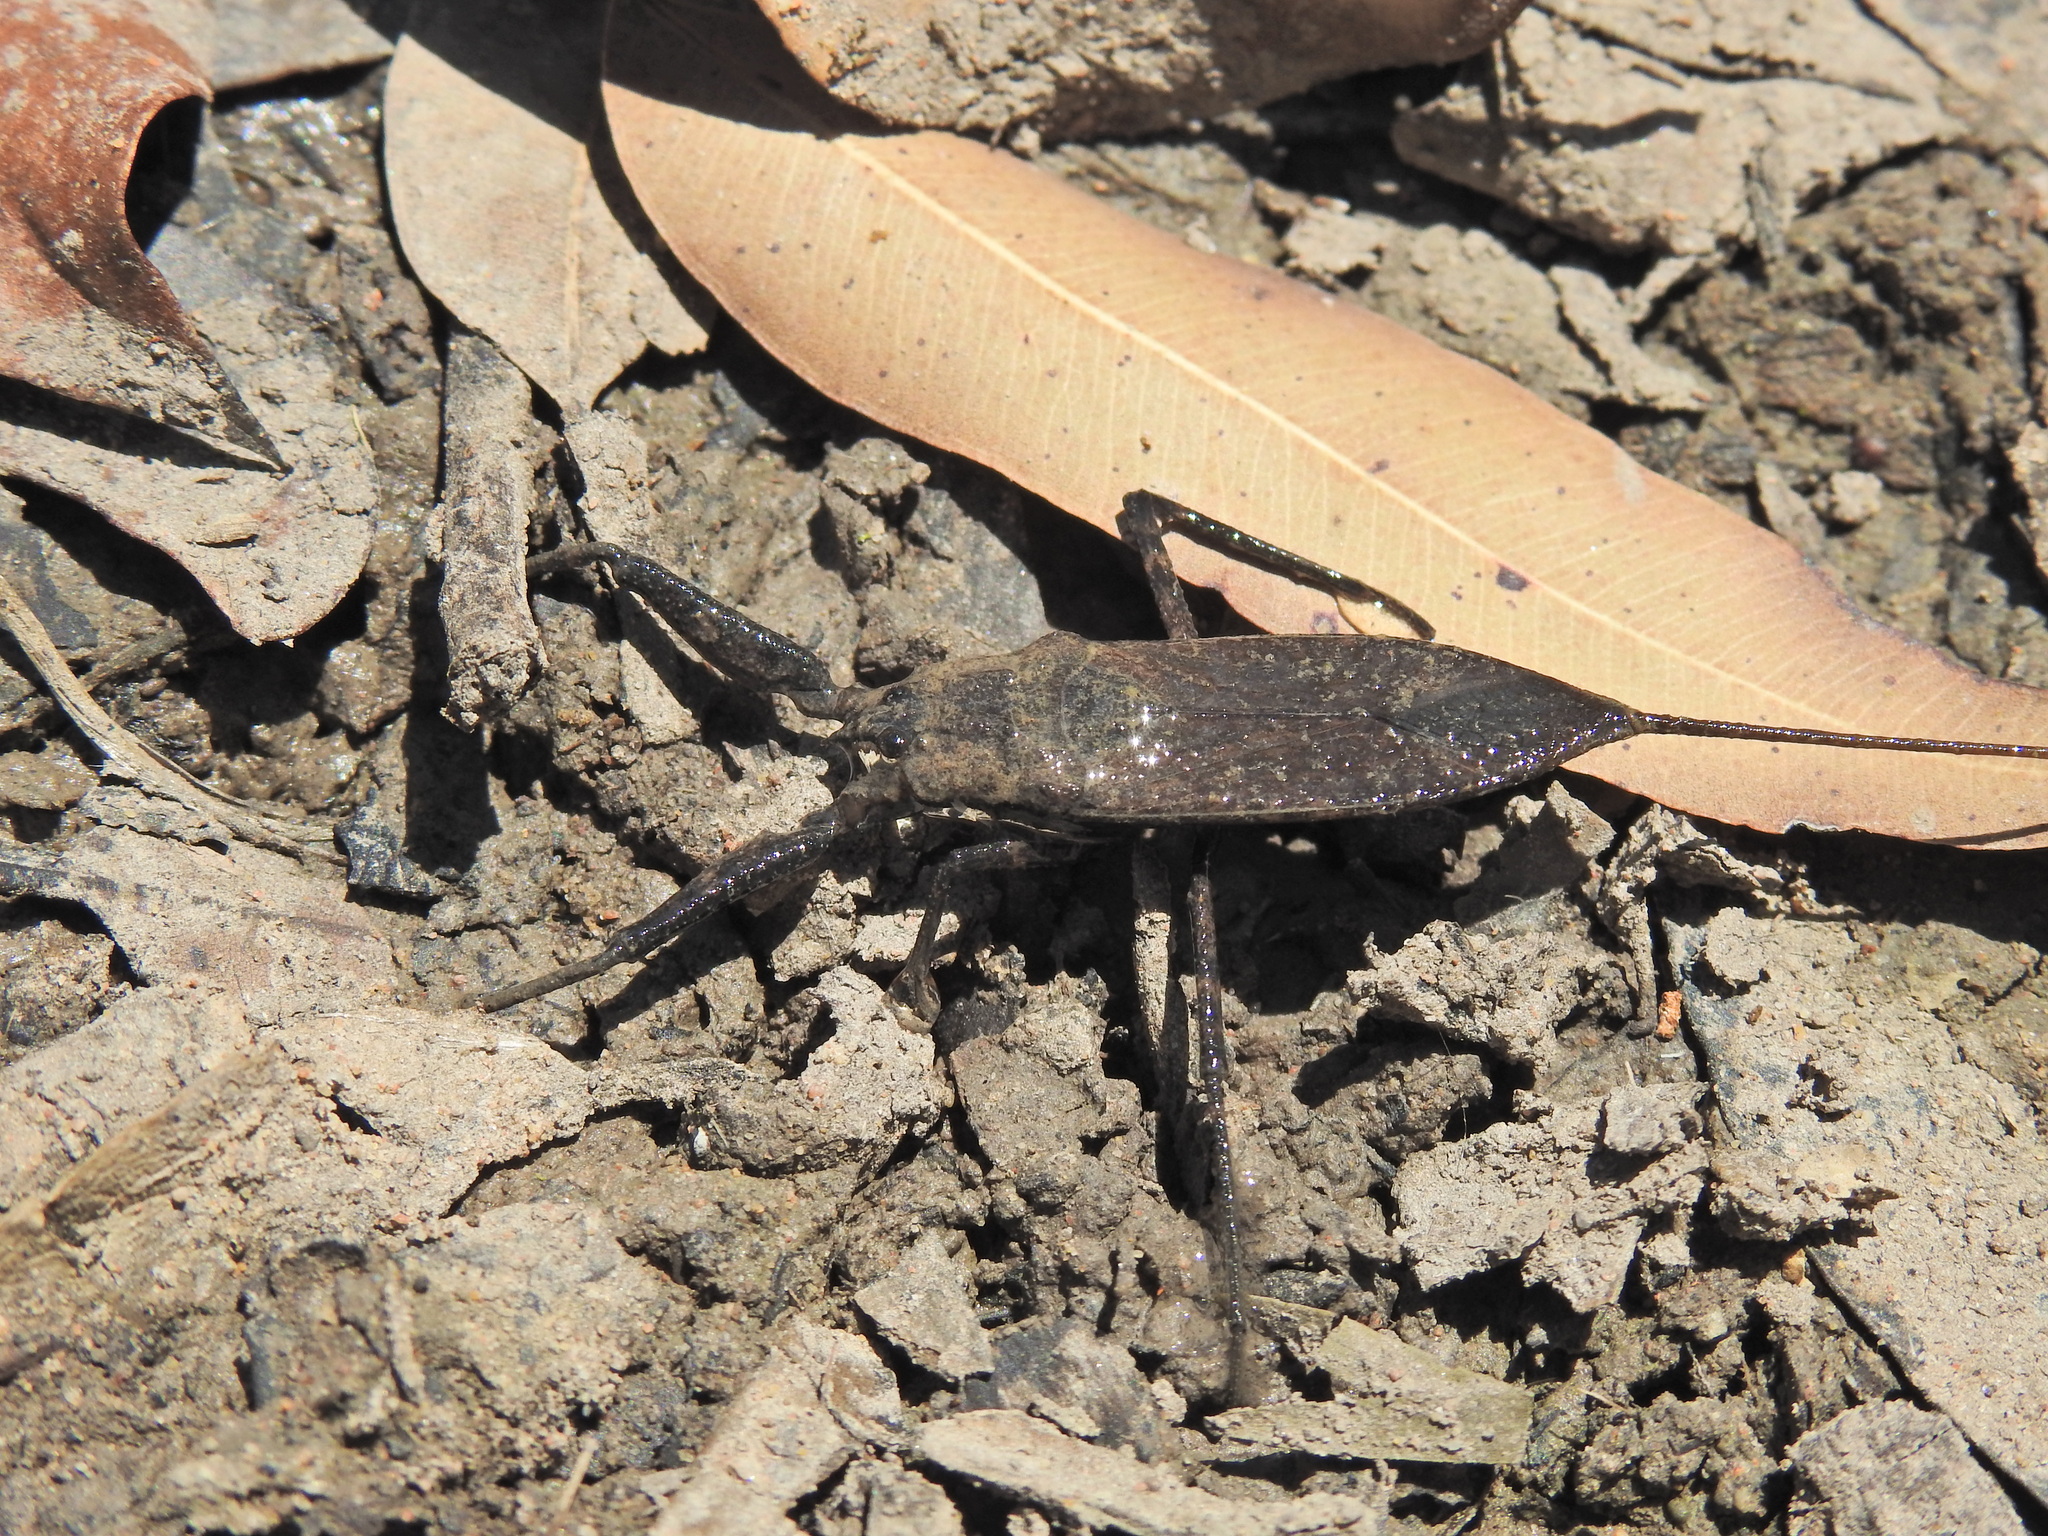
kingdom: Animalia
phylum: Arthropoda
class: Insecta
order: Hemiptera
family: Nepidae
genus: Laccotrephes
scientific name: Laccotrephes tristis
